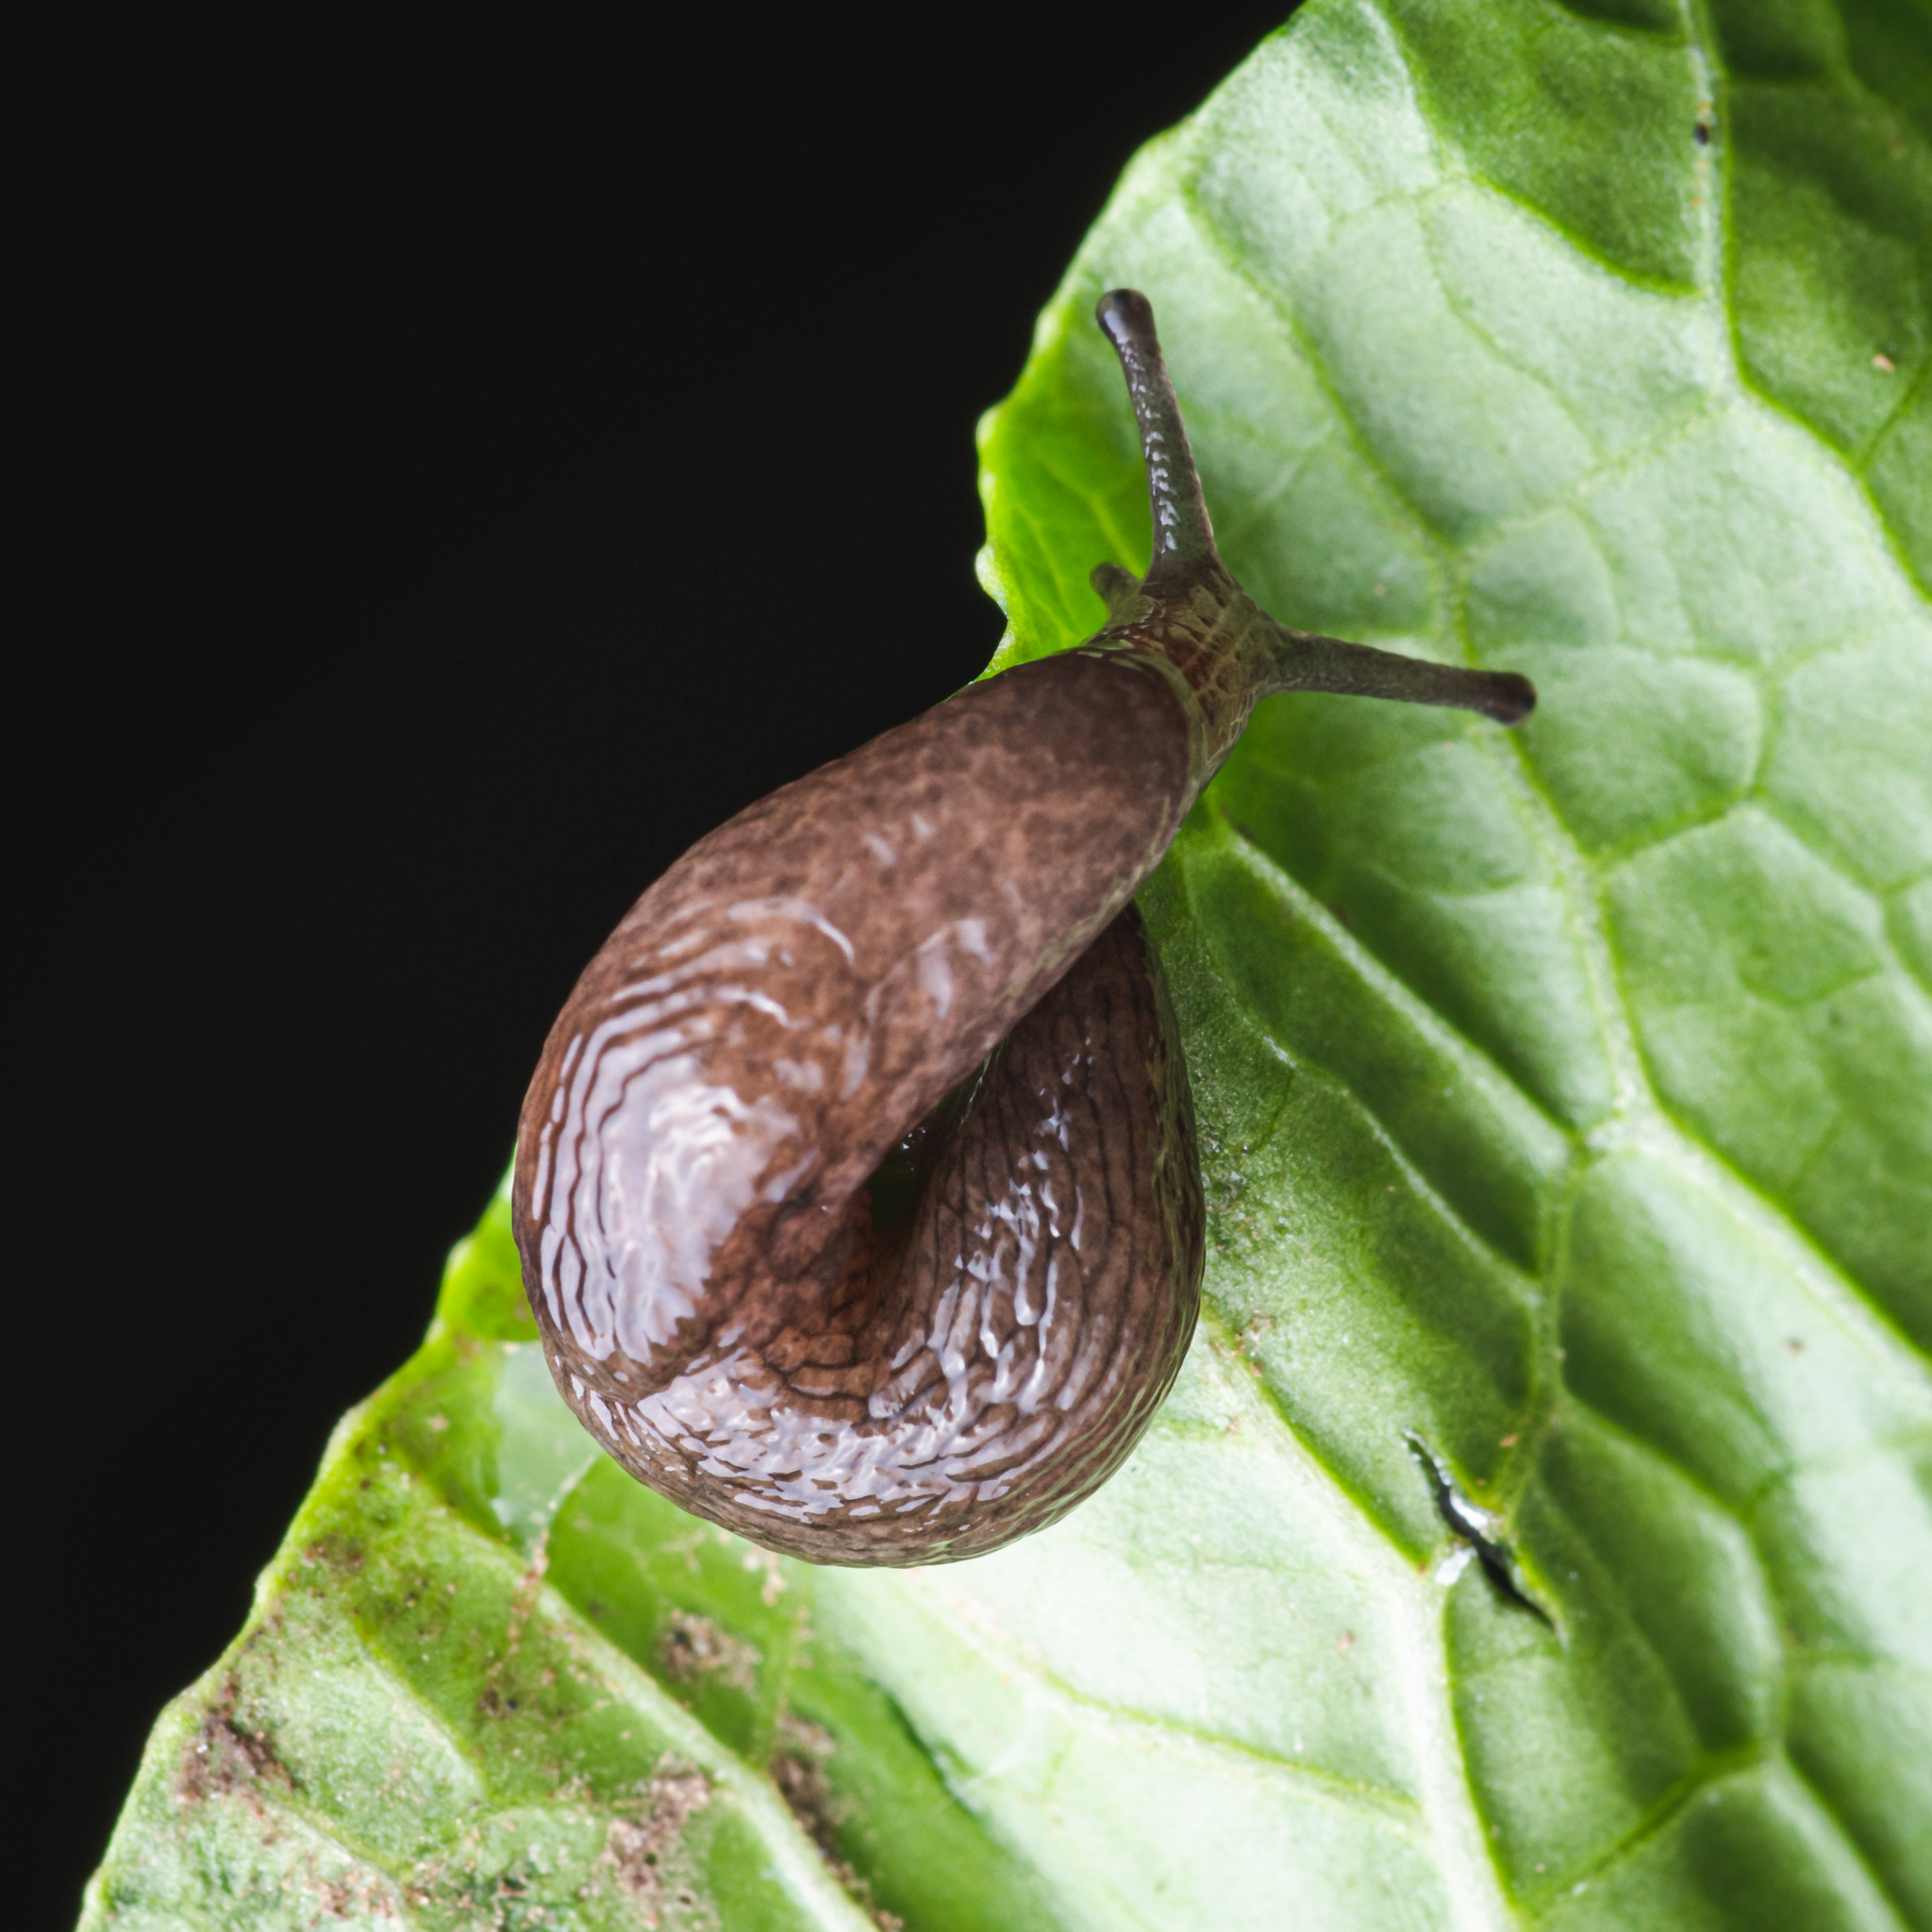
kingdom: Animalia
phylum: Mollusca
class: Gastropoda
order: Stylommatophora
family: Agriolimacidae
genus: Deroceras
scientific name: Deroceras laeve
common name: Marsh slug
